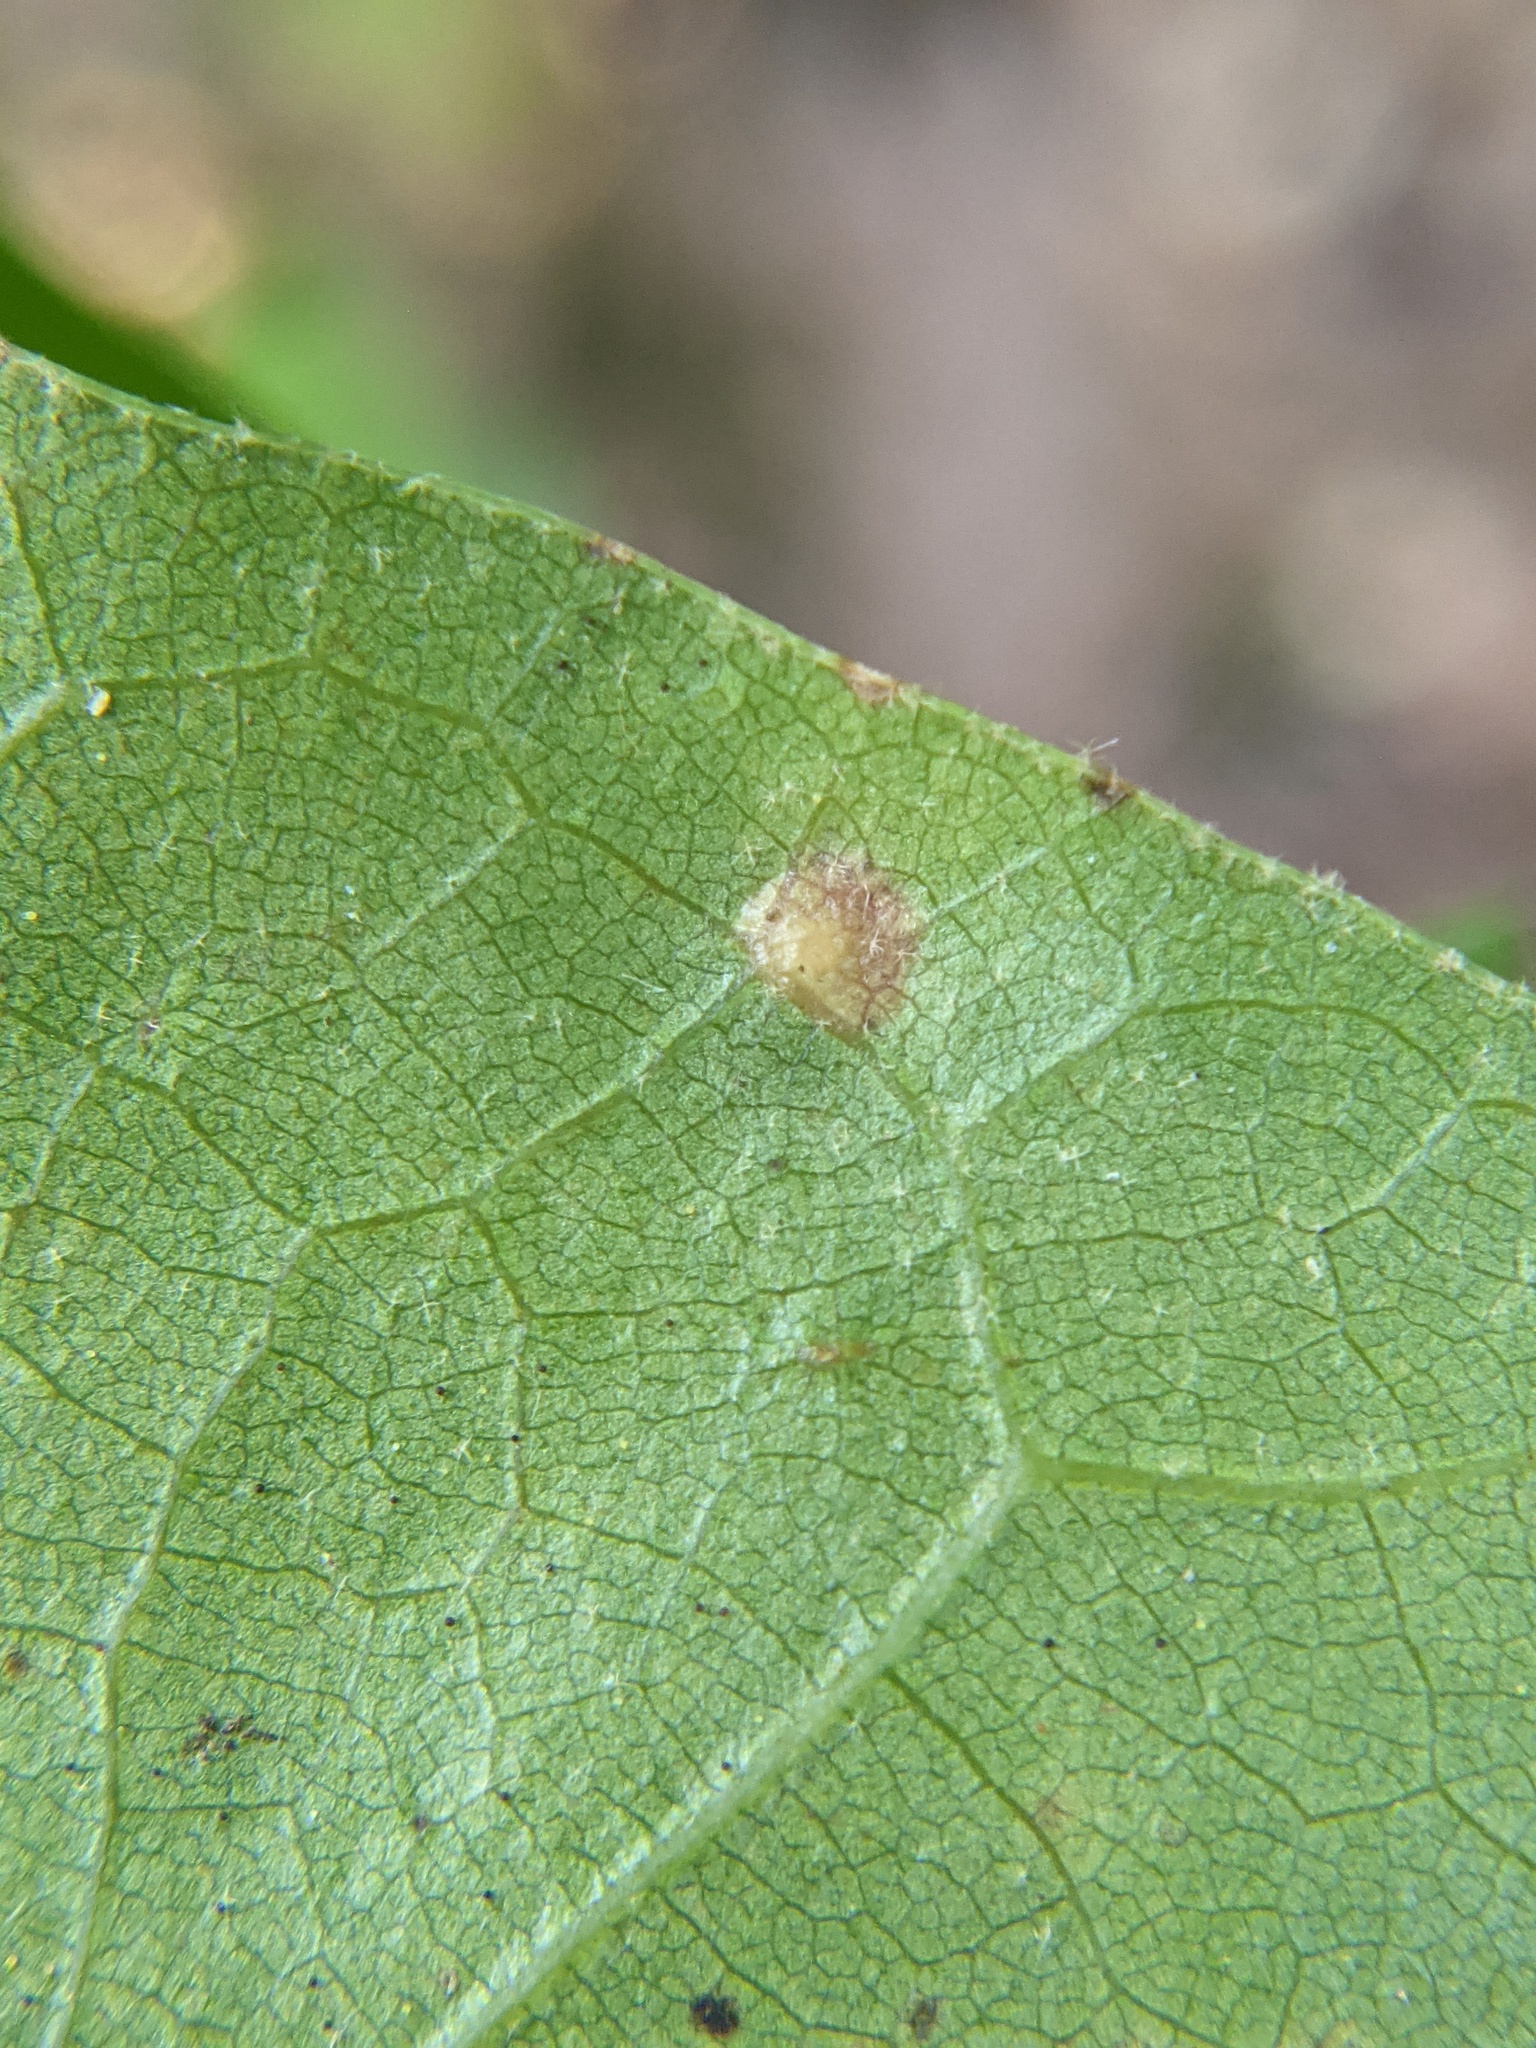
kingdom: Animalia
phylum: Arthropoda
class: Insecta
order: Diptera
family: Cecidomyiidae
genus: Polystepha
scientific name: Polystepha pilulae
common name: Oak leaf gall midge
